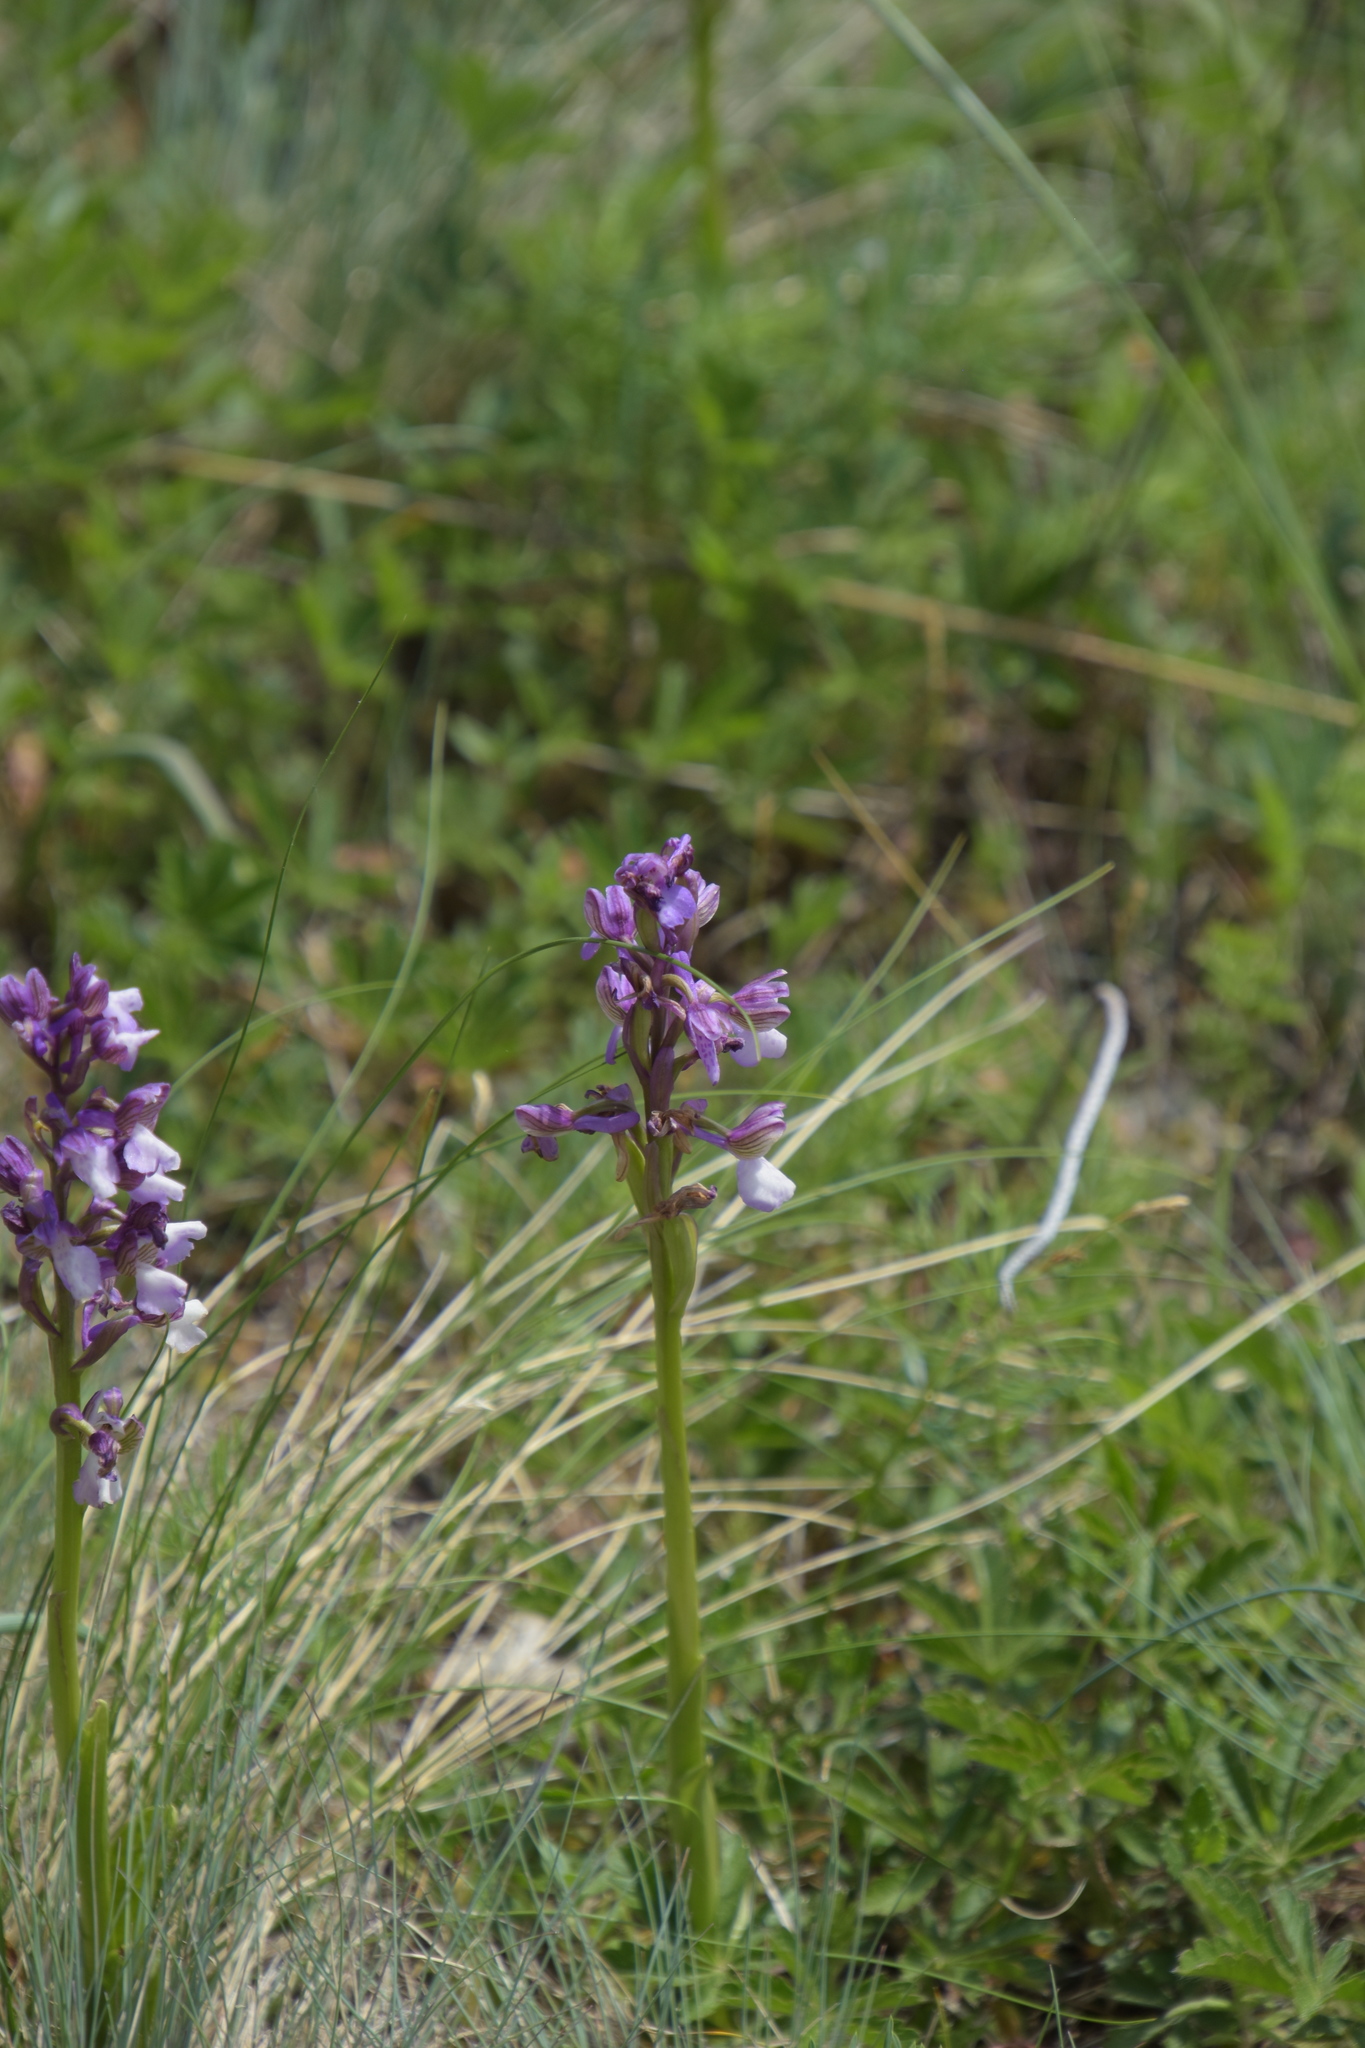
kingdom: Plantae
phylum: Tracheophyta
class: Liliopsida
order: Asparagales
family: Orchidaceae
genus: Anacamptis
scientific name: Anacamptis morio
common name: Green-winged orchid
